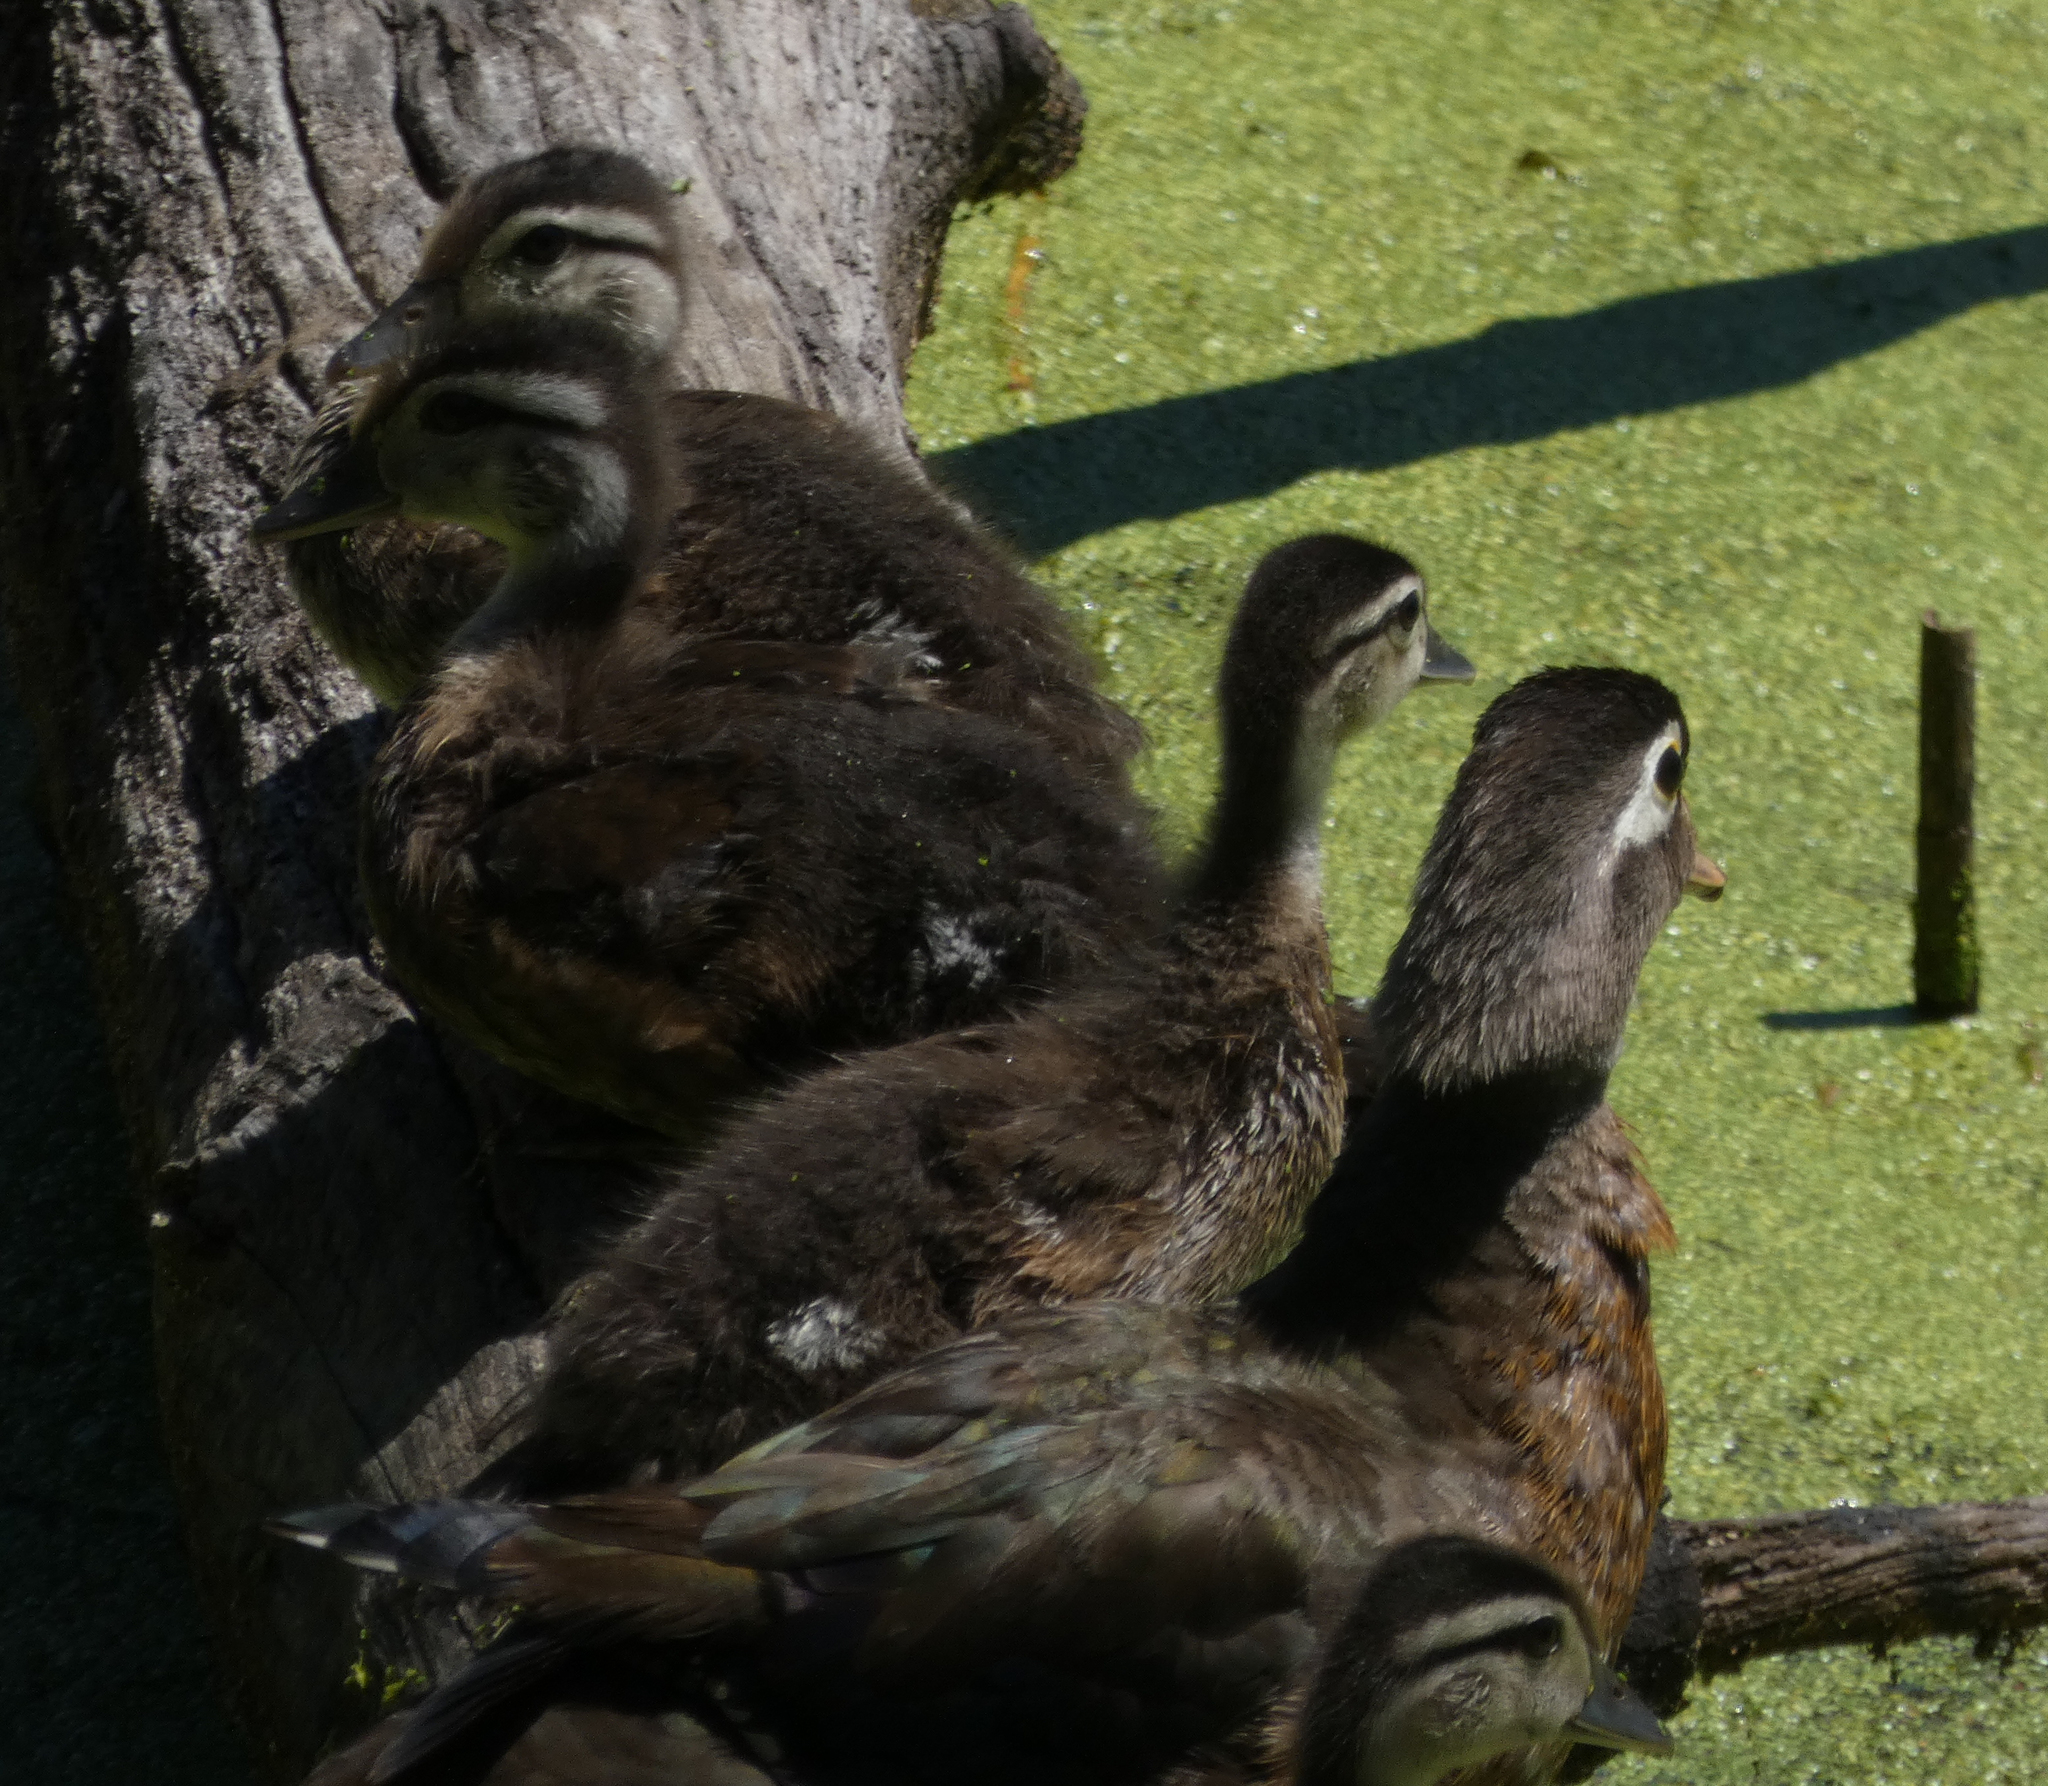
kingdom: Animalia
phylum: Chordata
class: Aves
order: Anseriformes
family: Anatidae
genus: Aix
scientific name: Aix sponsa
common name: Wood duck
